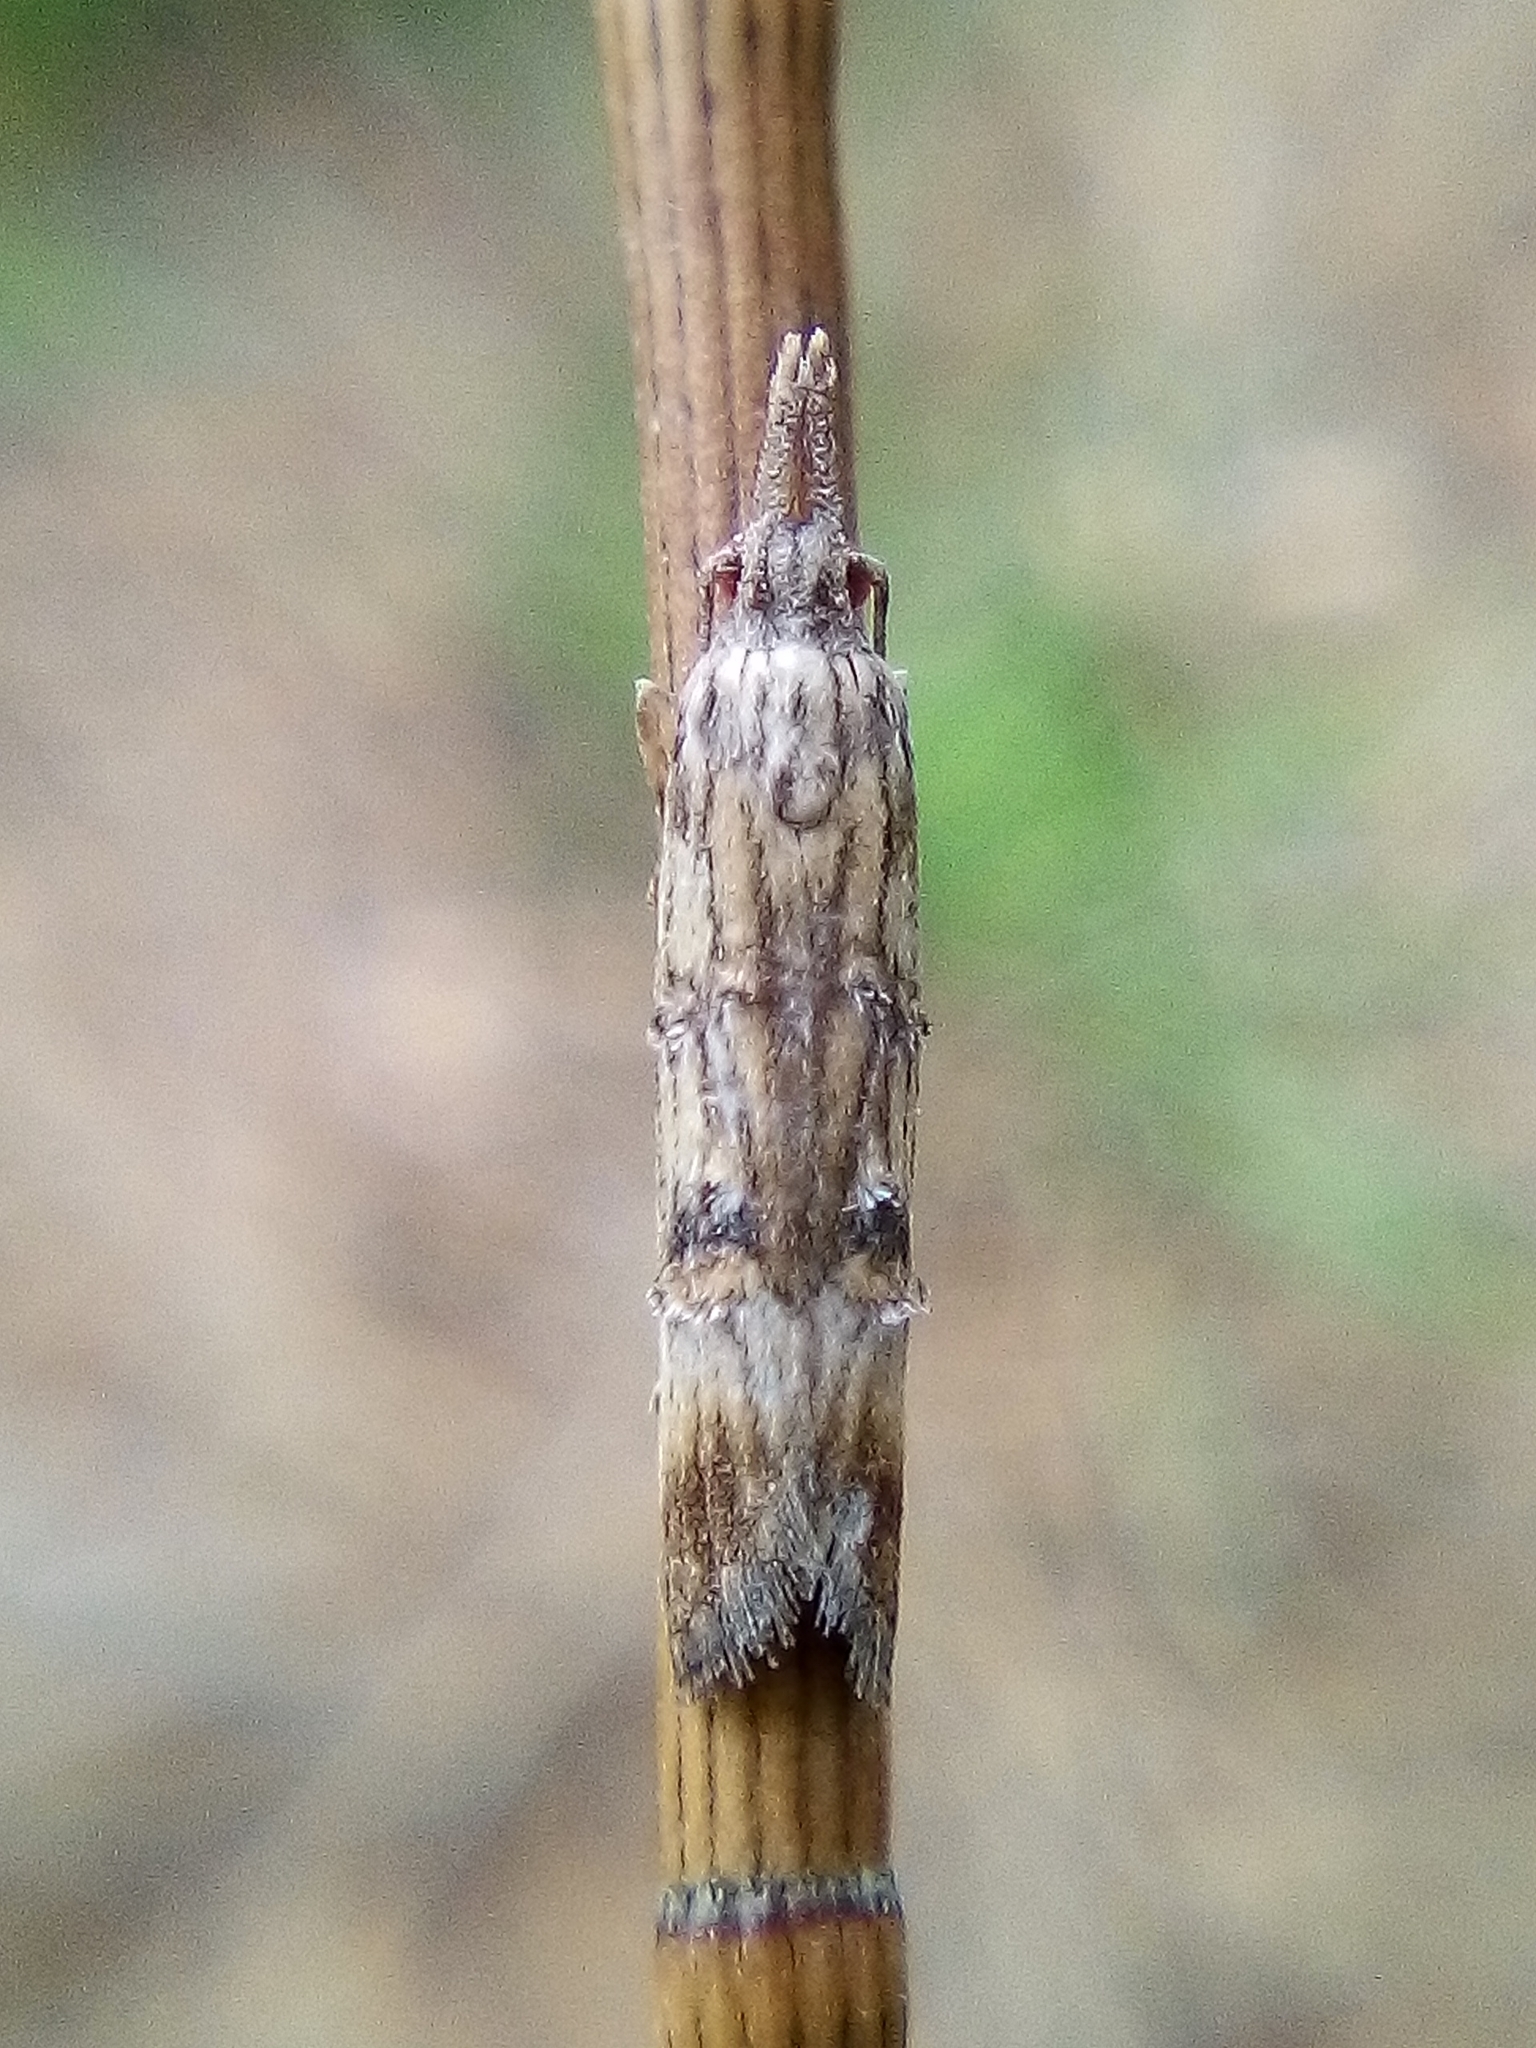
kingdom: Animalia
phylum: Arthropoda
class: Insecta
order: Lepidoptera
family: Carposinidae
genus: Carposina
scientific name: Carposina neurophorella
